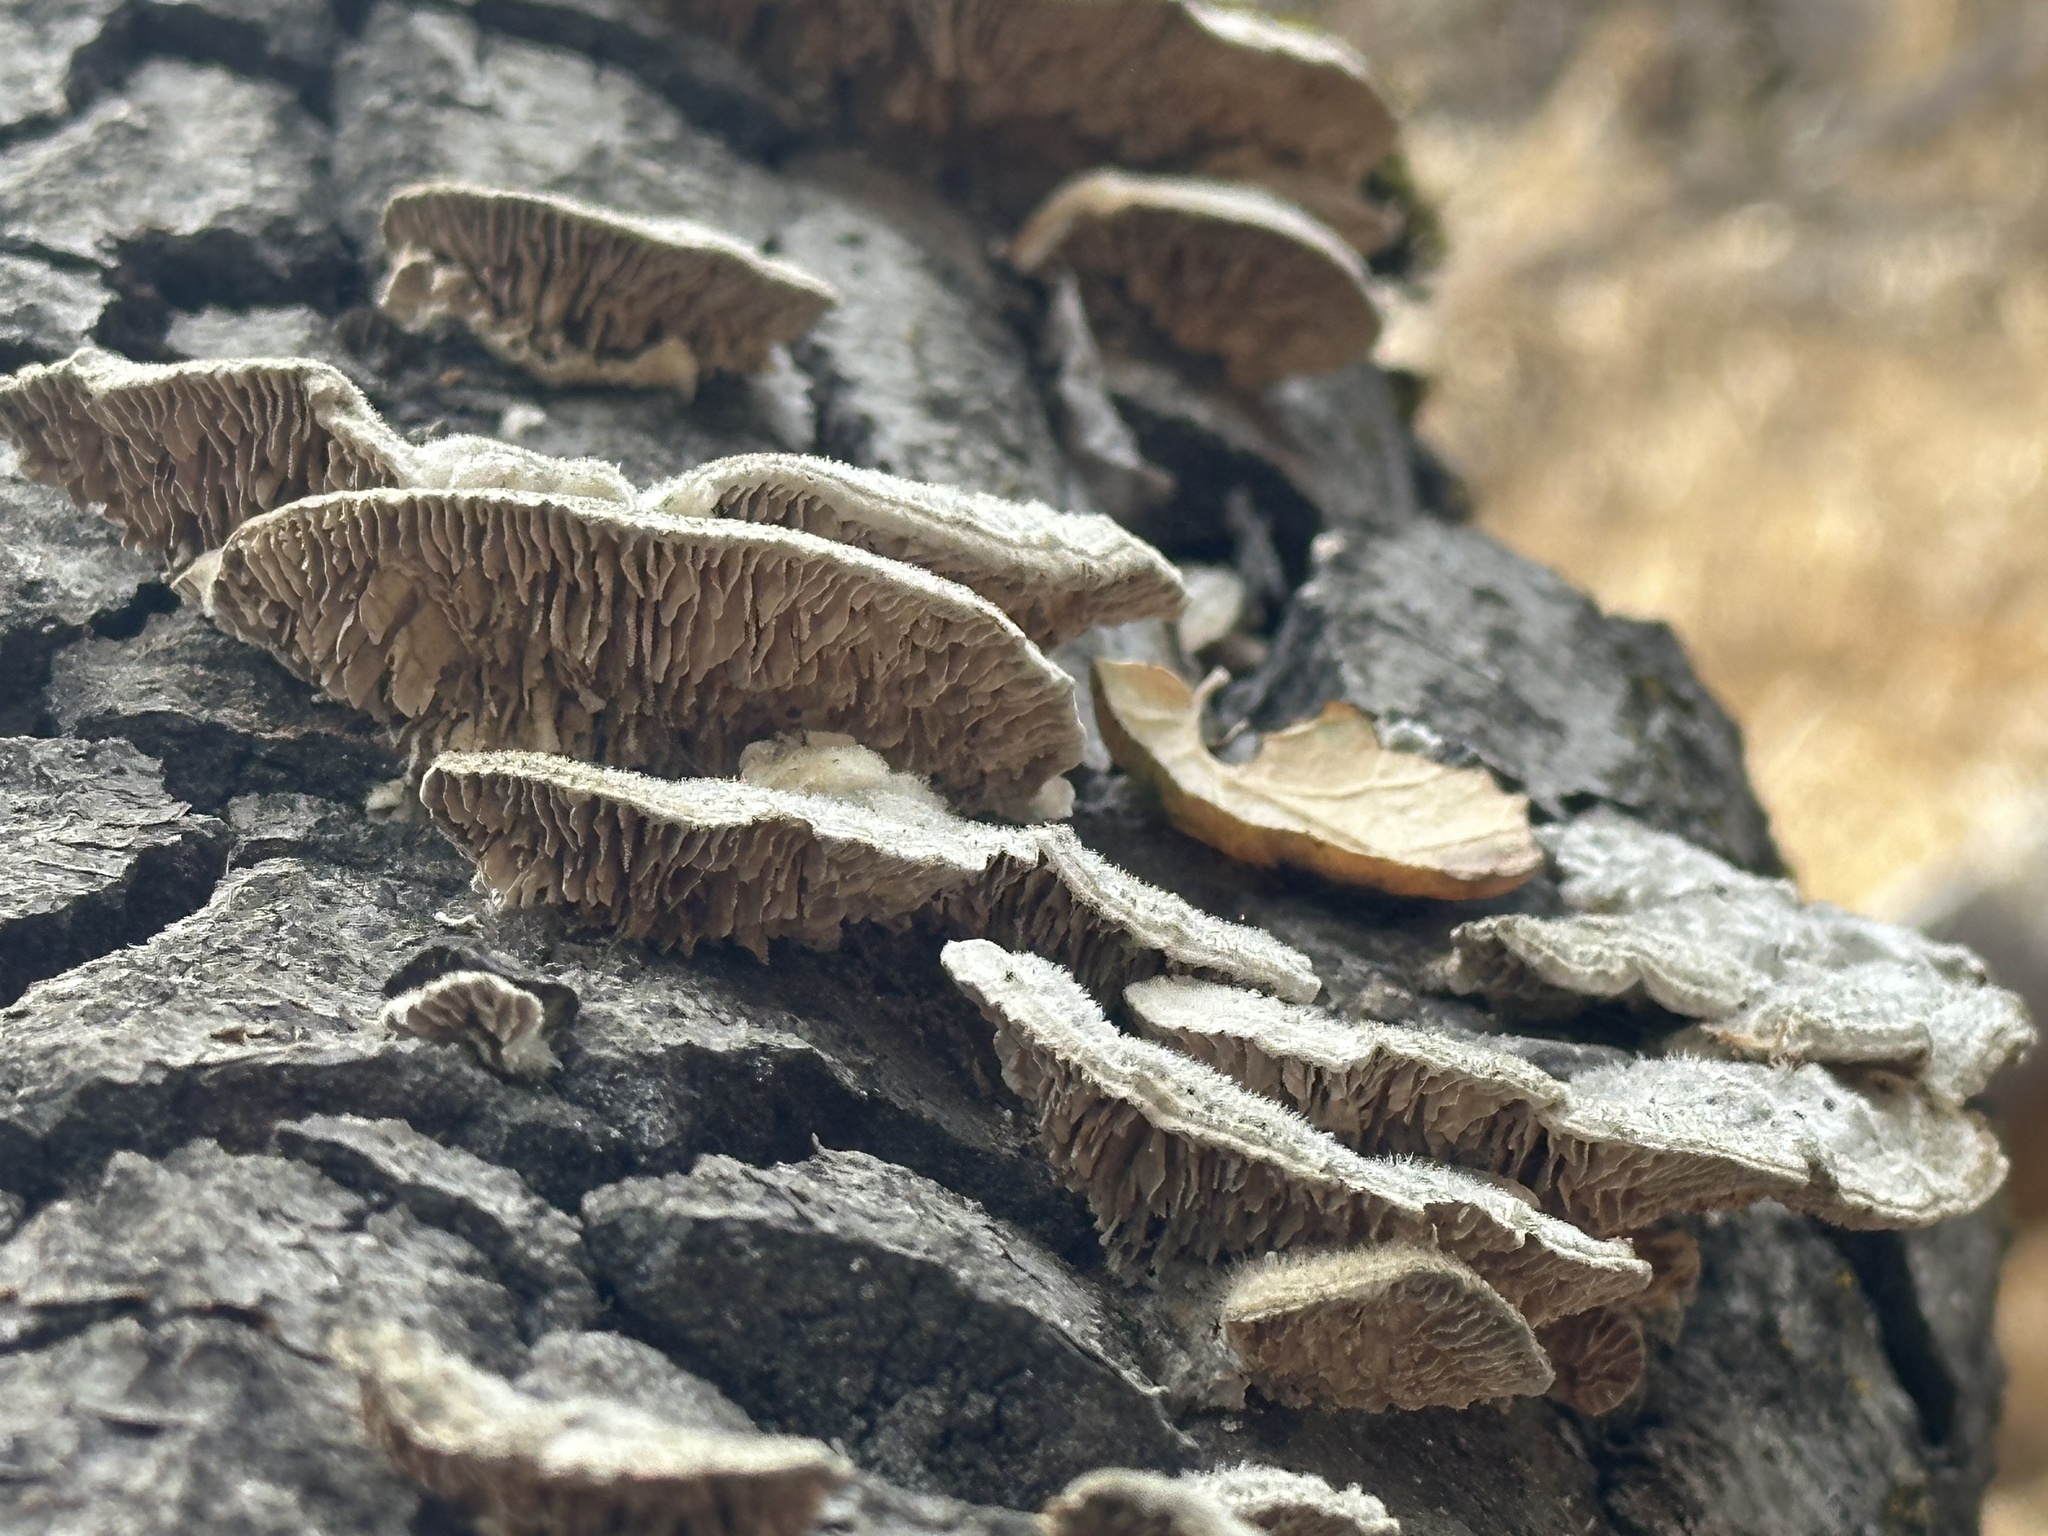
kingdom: Fungi
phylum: Basidiomycota
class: Agaricomycetes
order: Polyporales
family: Polyporaceae
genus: Lenzites
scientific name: Lenzites betulinus
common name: Birch mazegill
